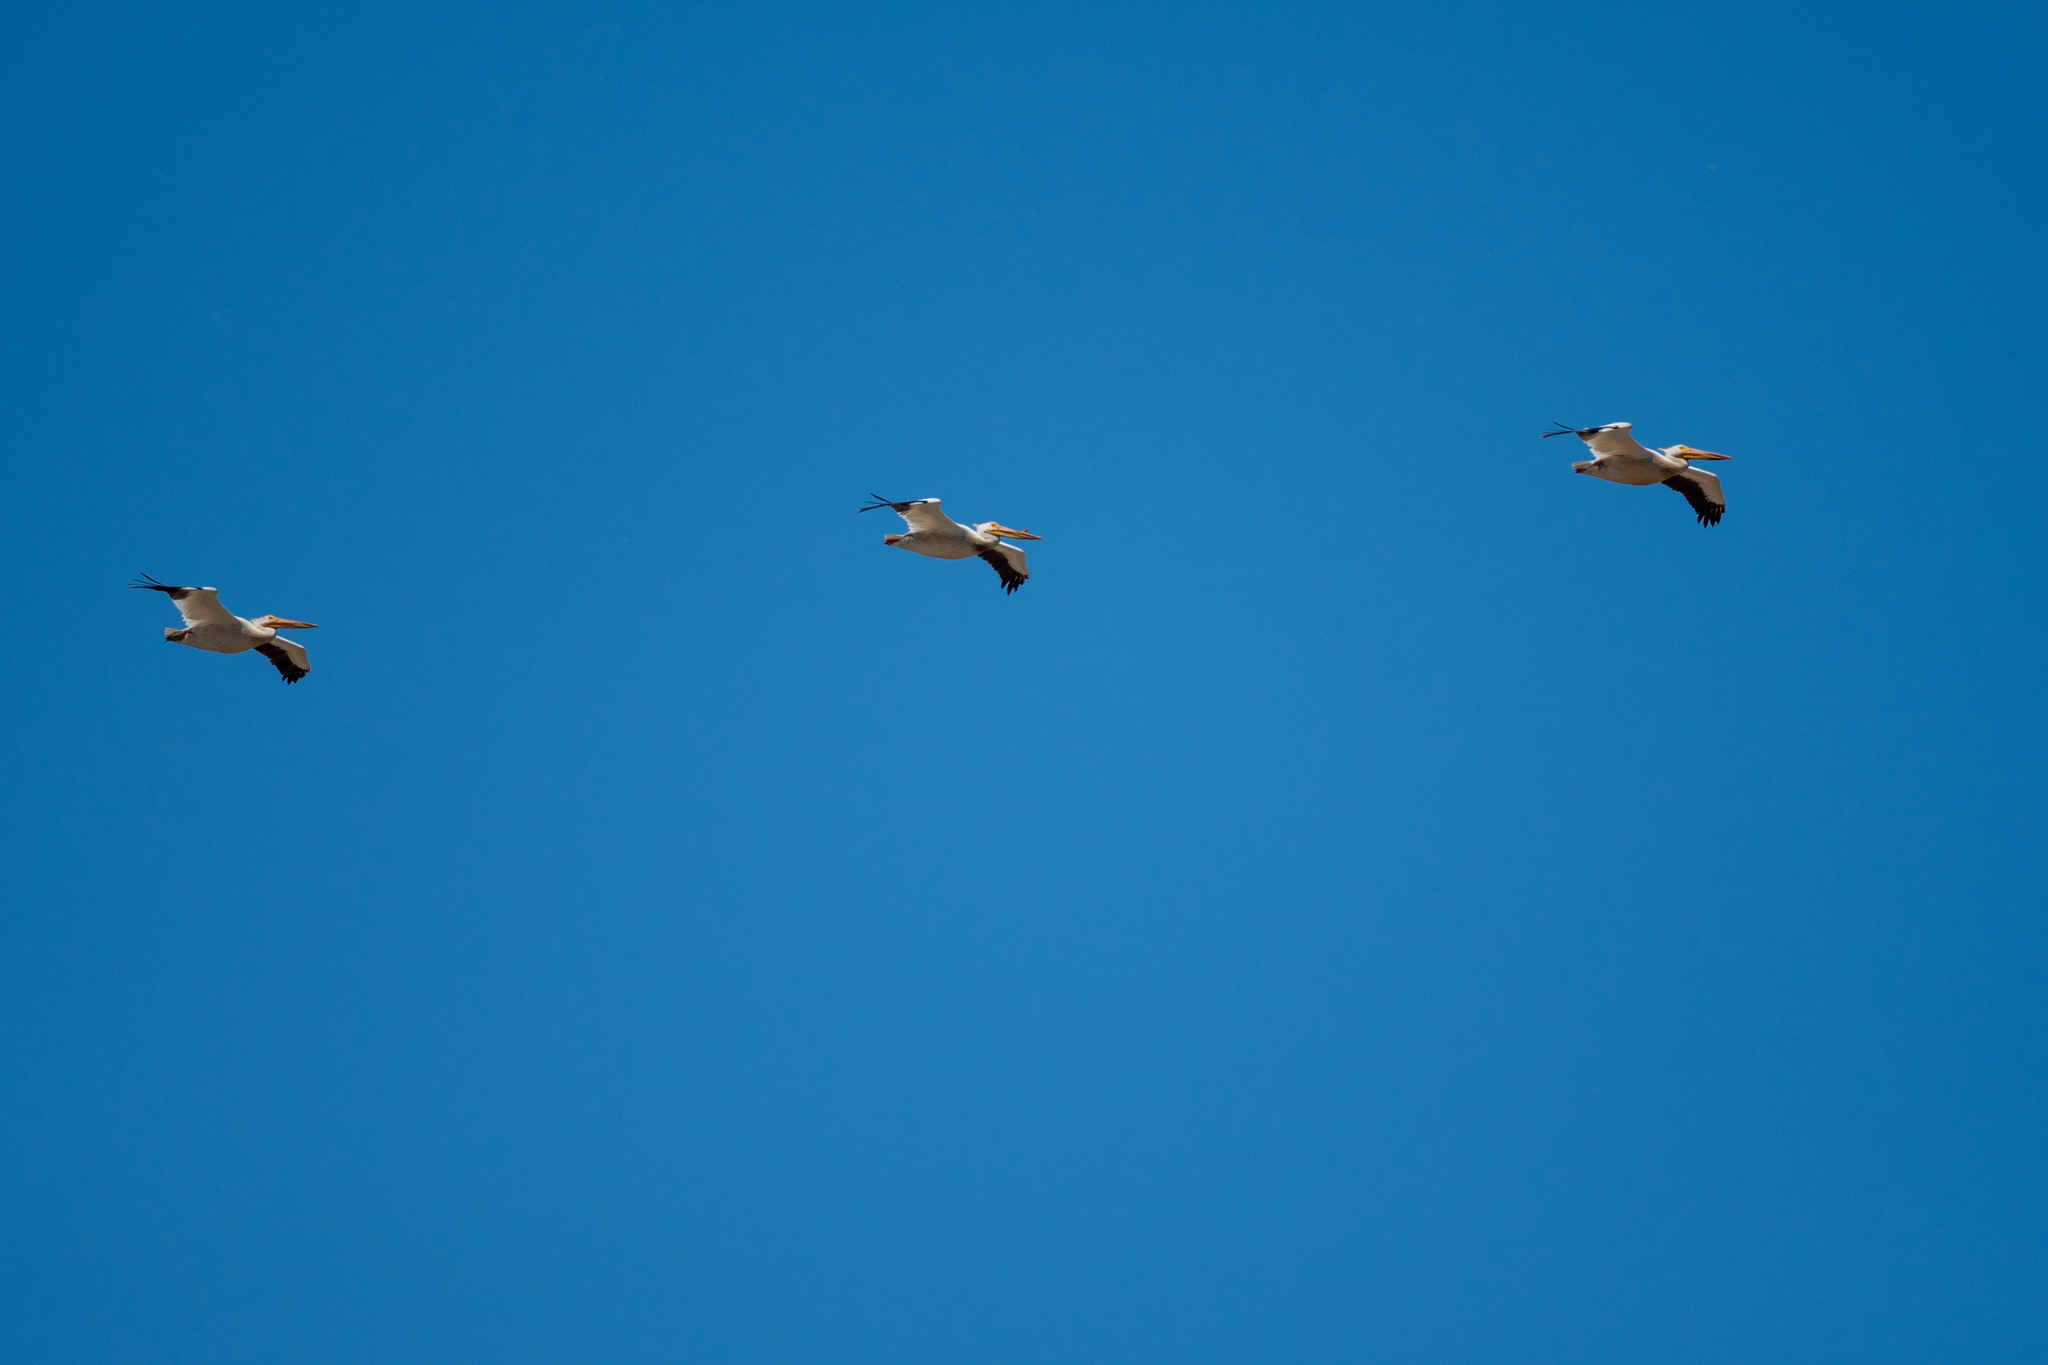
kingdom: Animalia
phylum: Chordata
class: Aves
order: Pelecaniformes
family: Pelecanidae
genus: Pelecanus
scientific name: Pelecanus erythrorhynchos
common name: American white pelican
